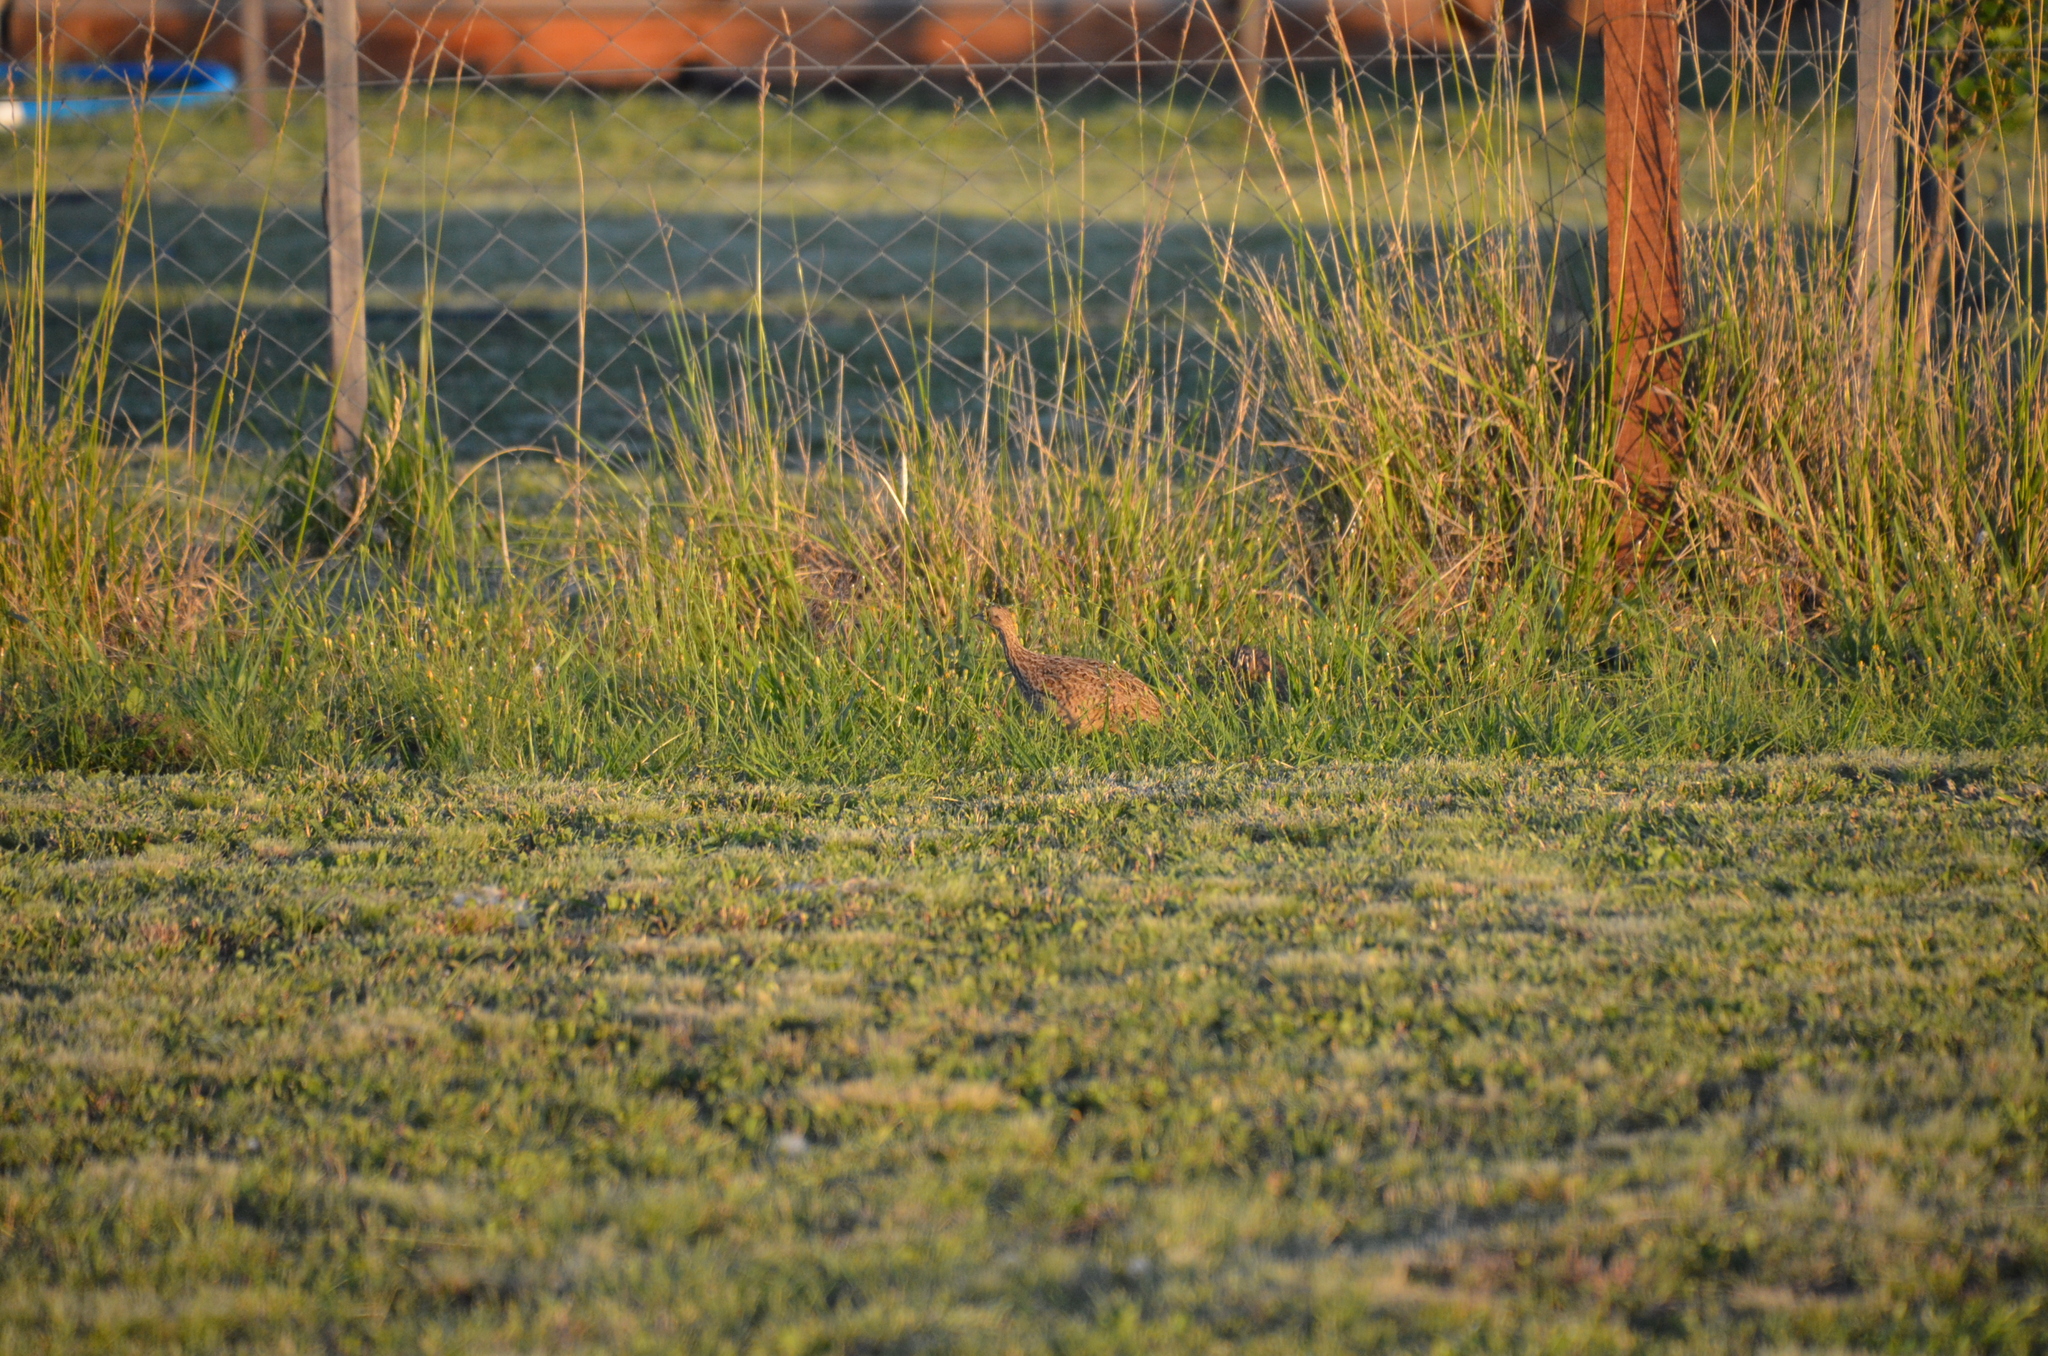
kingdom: Animalia
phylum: Chordata
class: Aves
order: Tinamiformes
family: Tinamidae
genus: Nothura
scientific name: Nothura maculosa
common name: Spotted nothura
